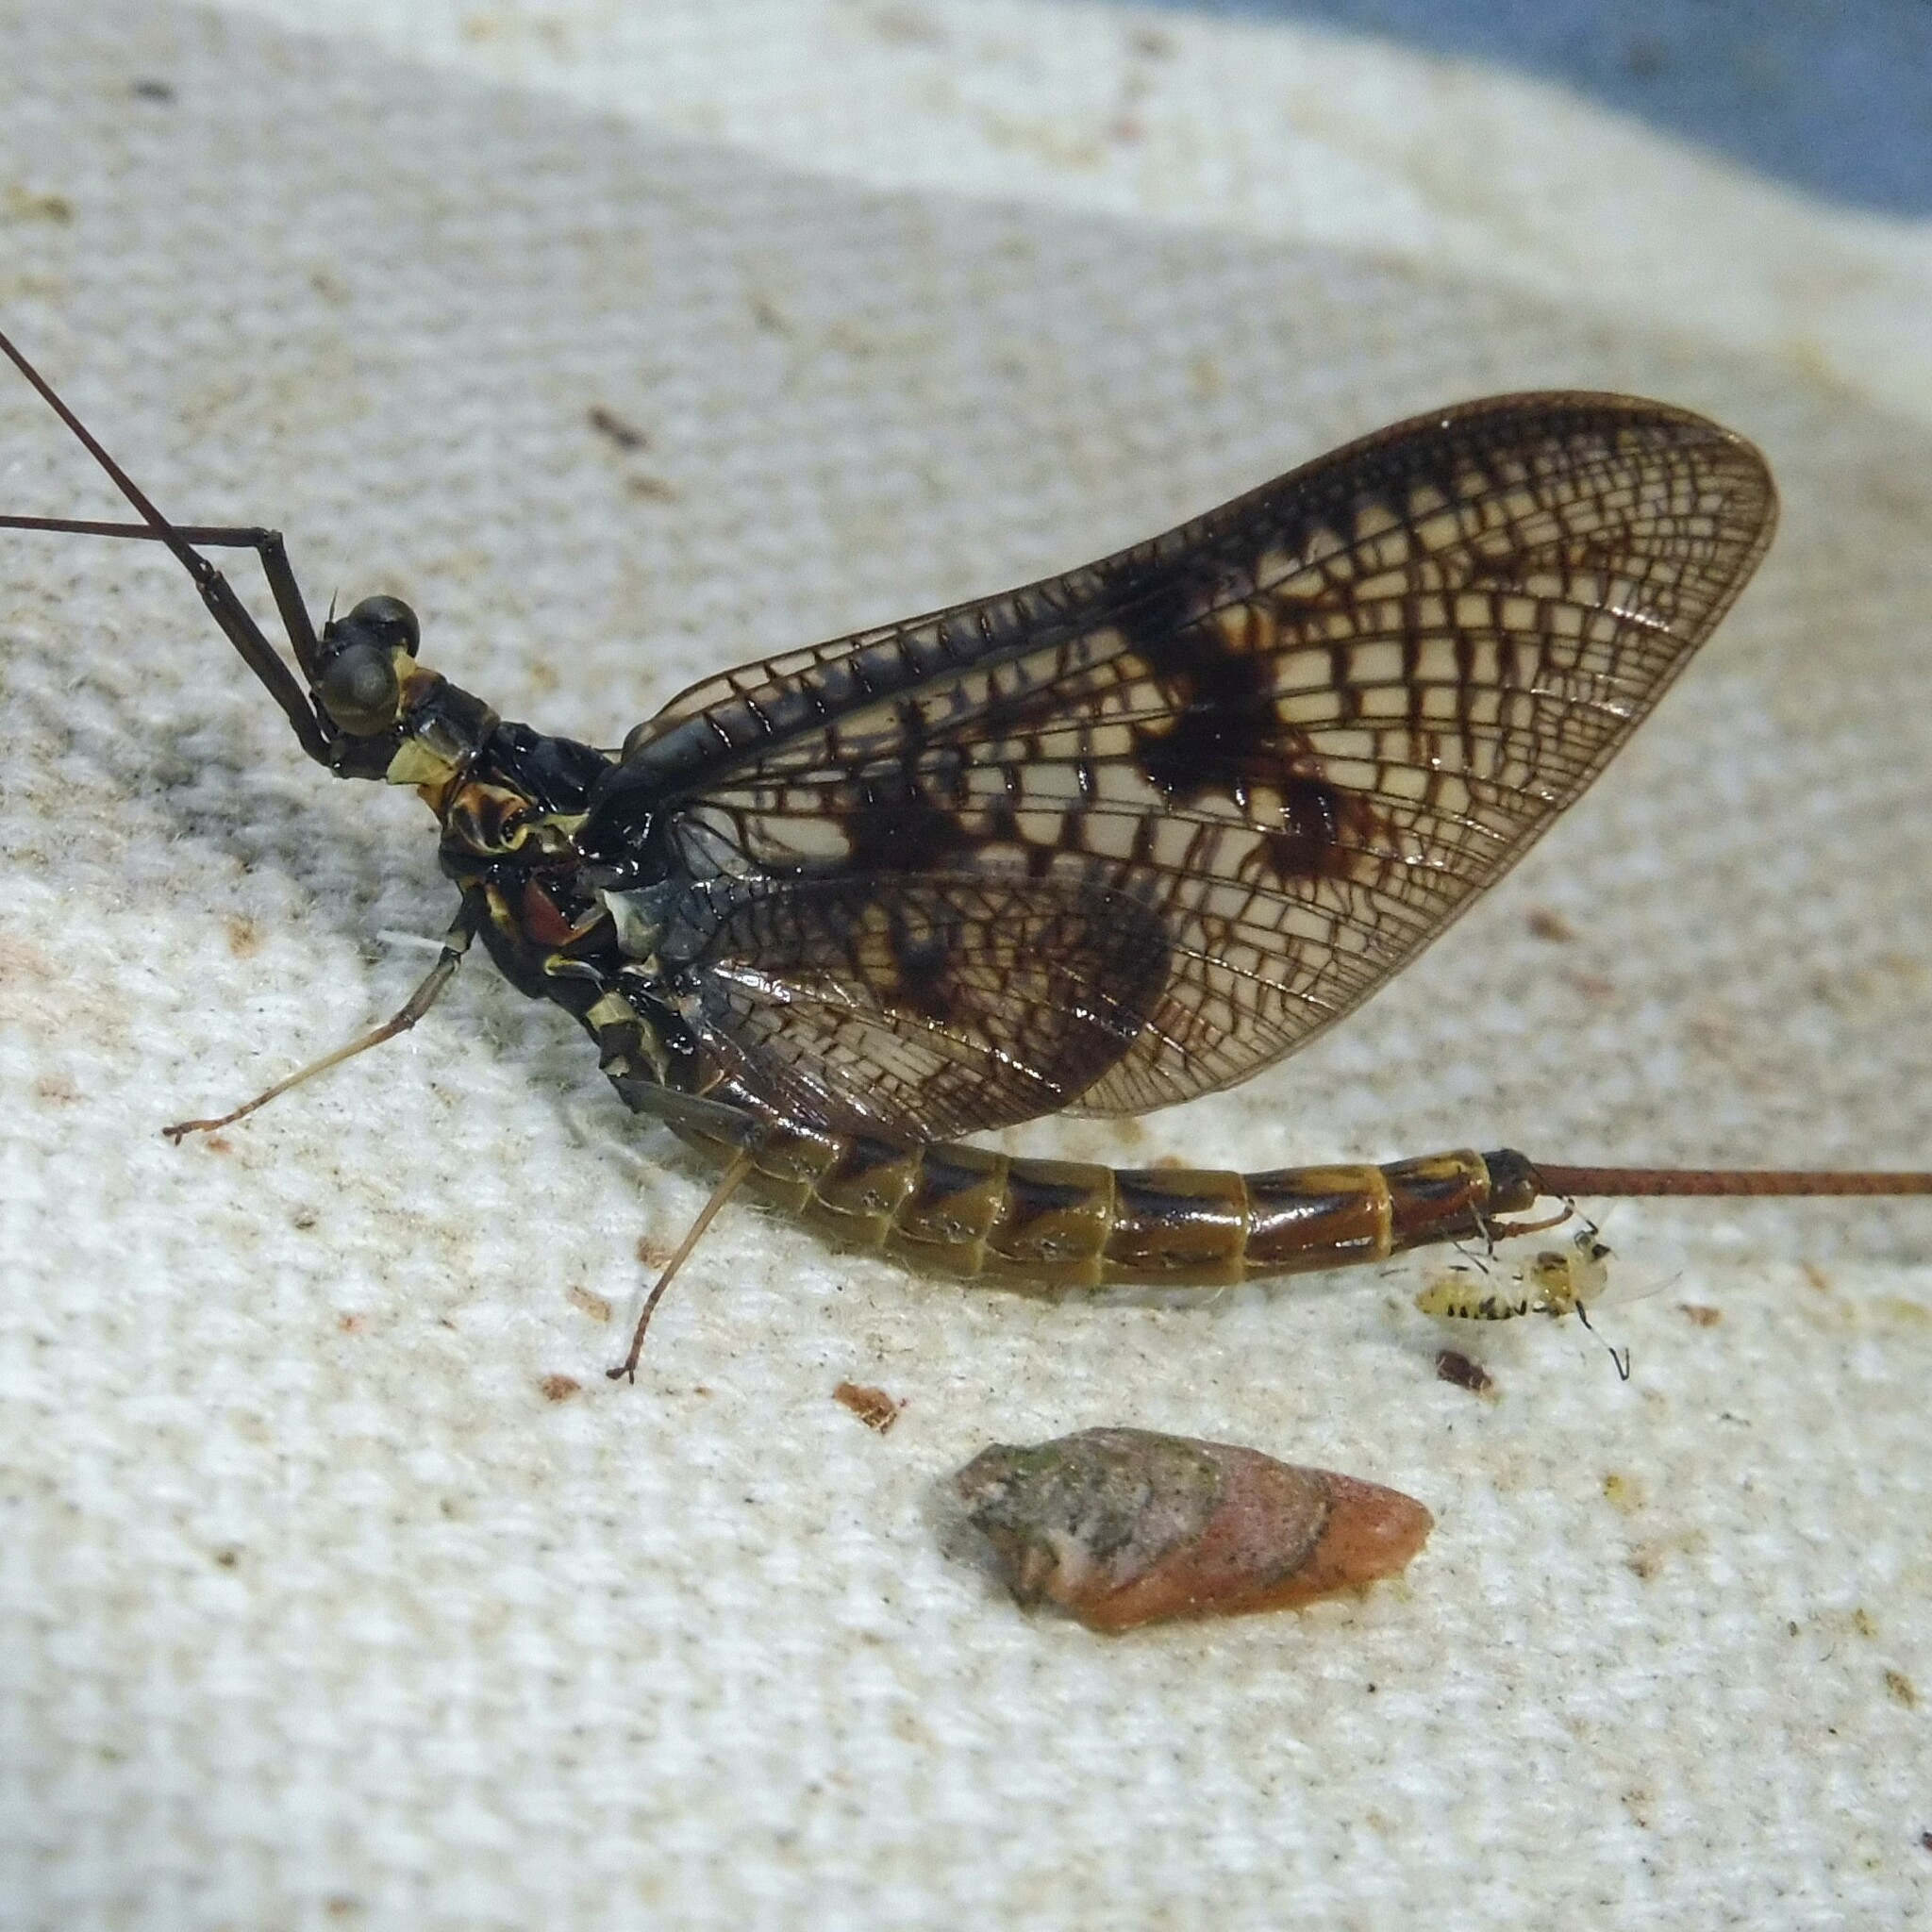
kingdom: Animalia
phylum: Arthropoda
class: Insecta
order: Ephemeroptera
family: Ephemeridae
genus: Ephemera
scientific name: Ephemera vulgata
